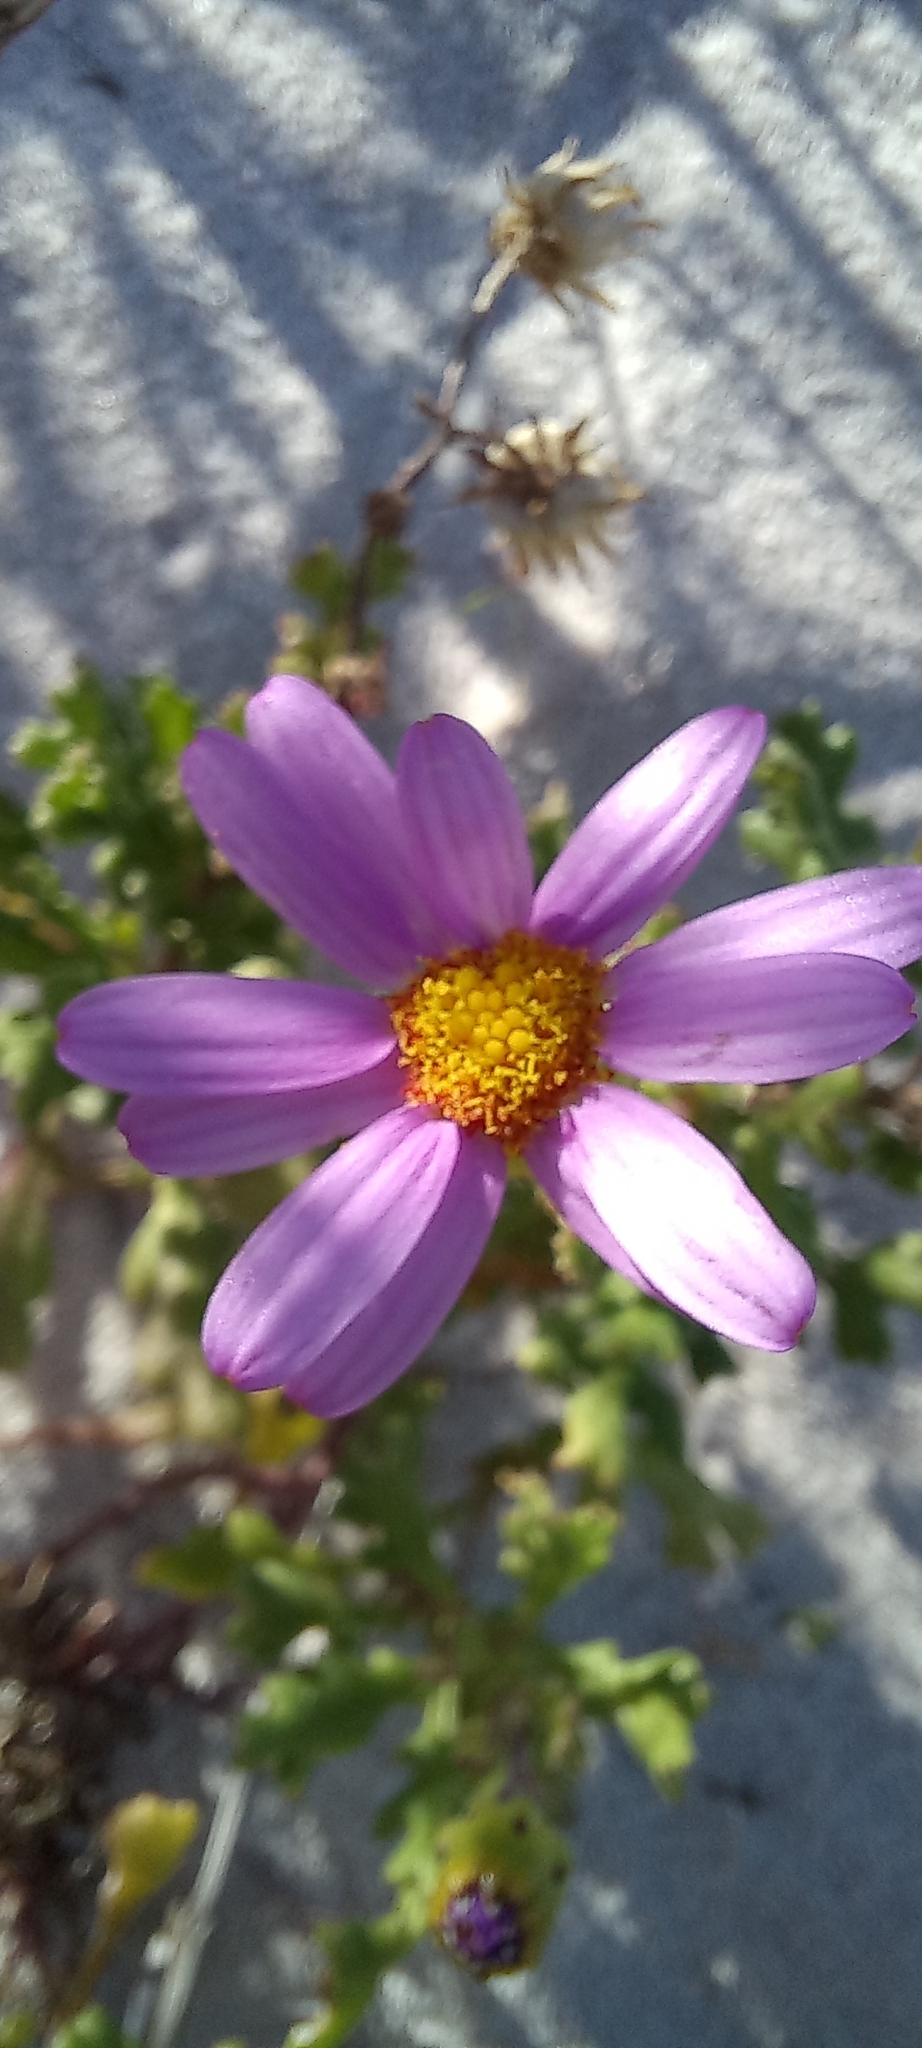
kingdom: Plantae
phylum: Tracheophyta
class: Magnoliopsida
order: Asterales
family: Asteraceae
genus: Senecio
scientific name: Senecio arenarius
